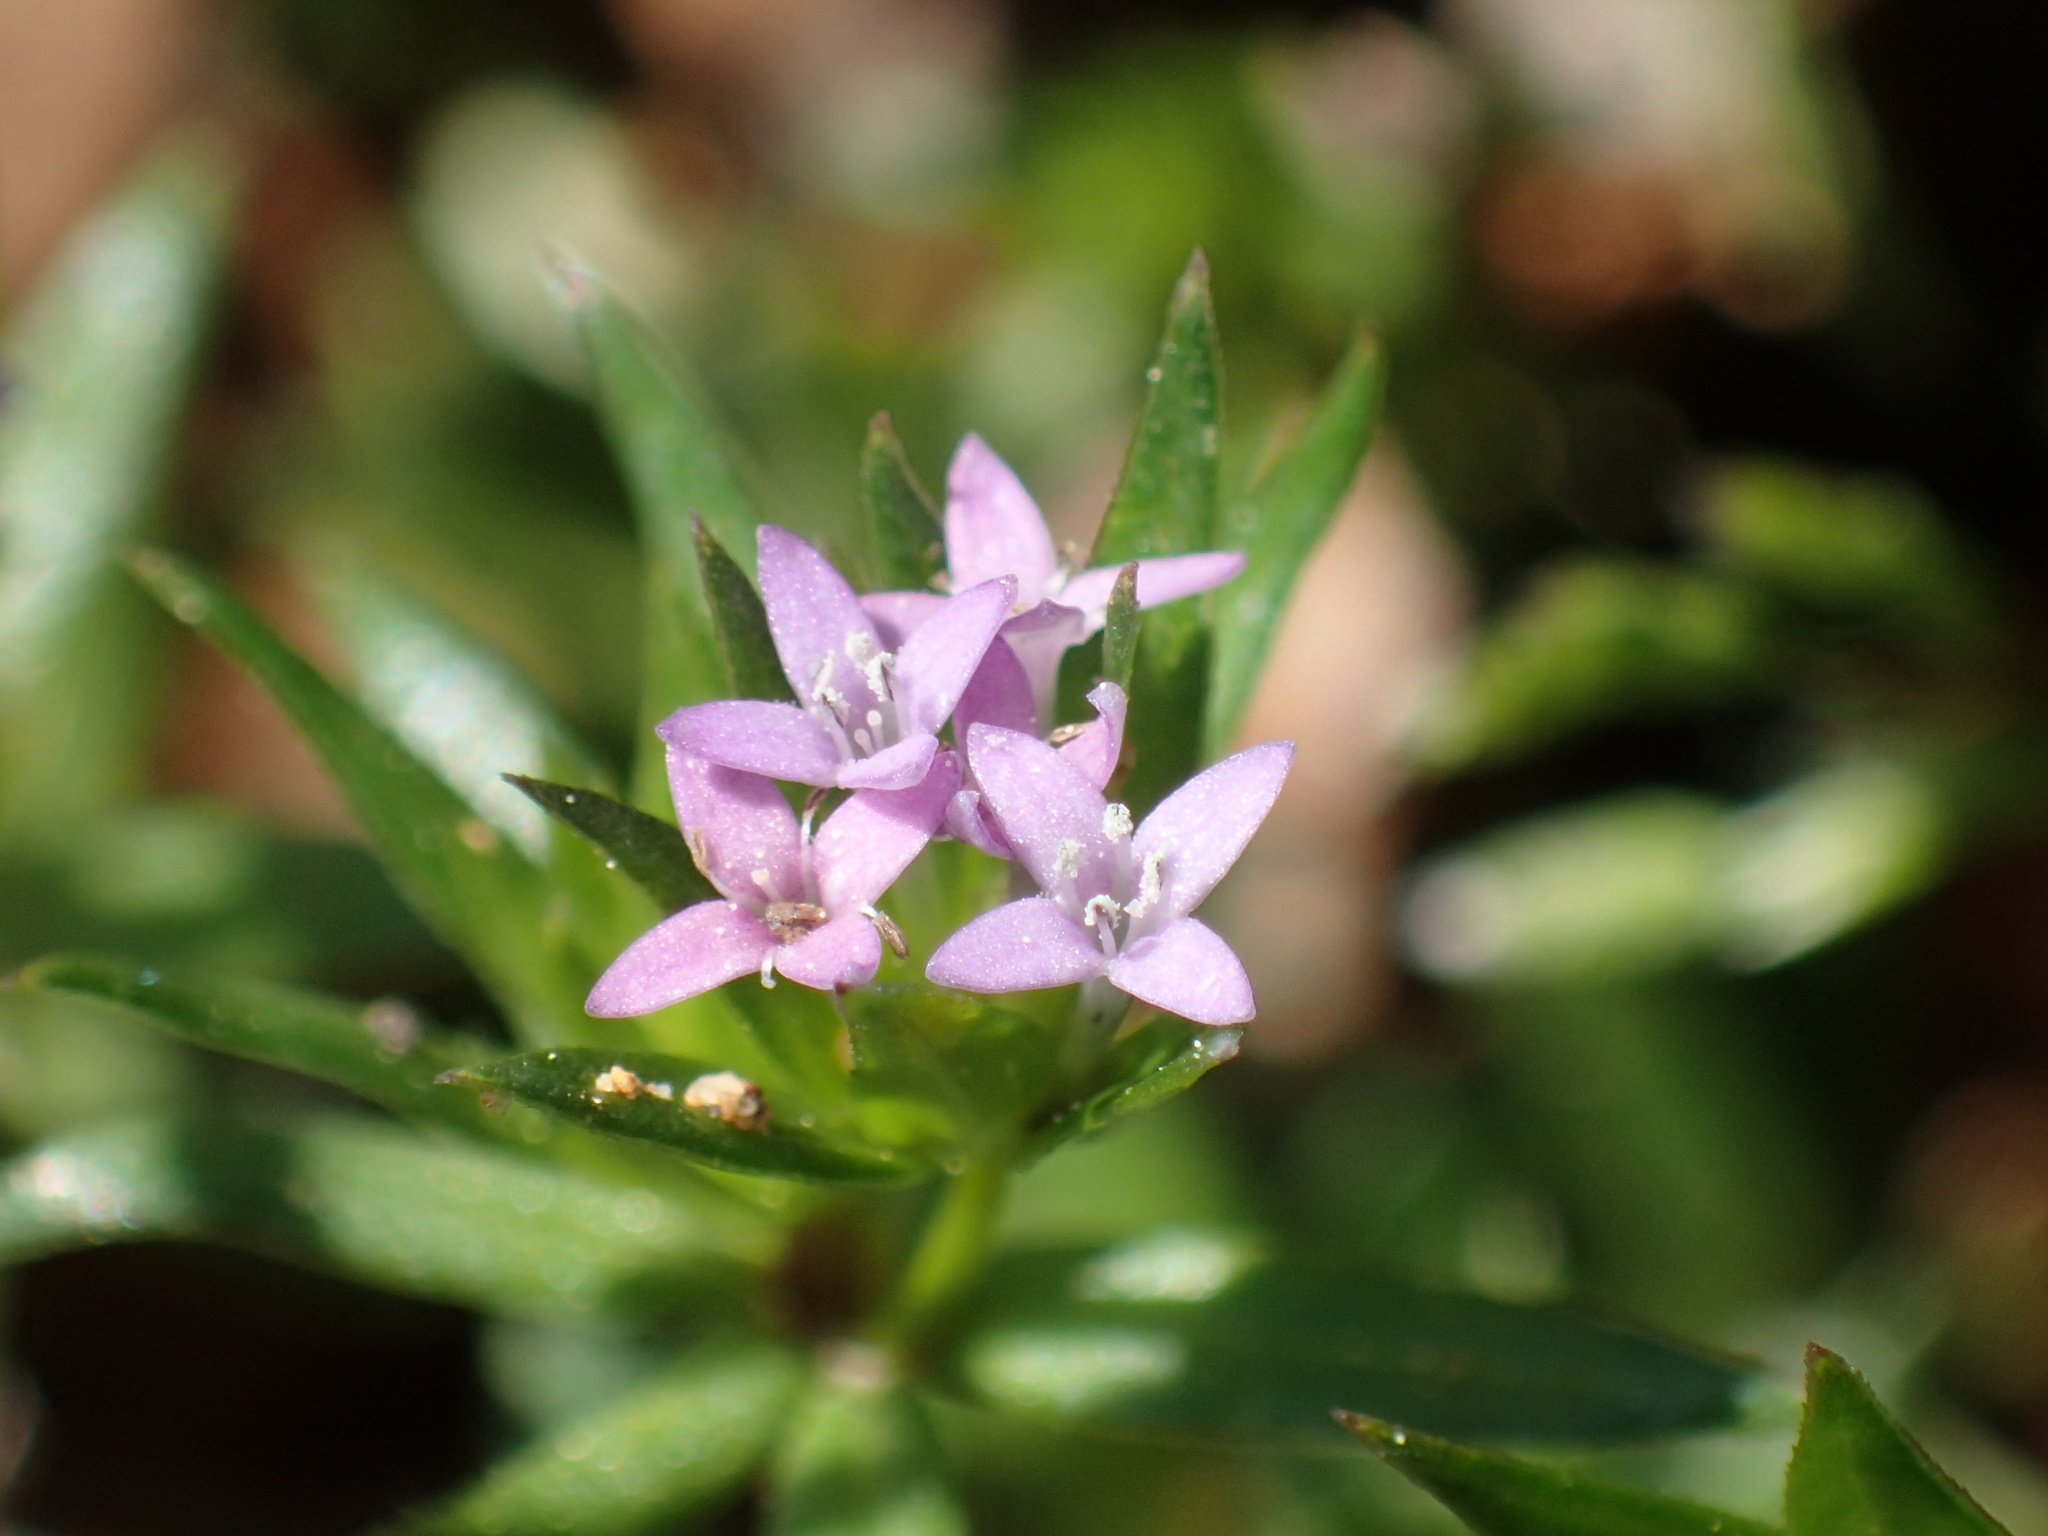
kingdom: Plantae
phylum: Tracheophyta
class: Magnoliopsida
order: Gentianales
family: Rubiaceae
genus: Sherardia
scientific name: Sherardia arvensis
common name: Field madder
